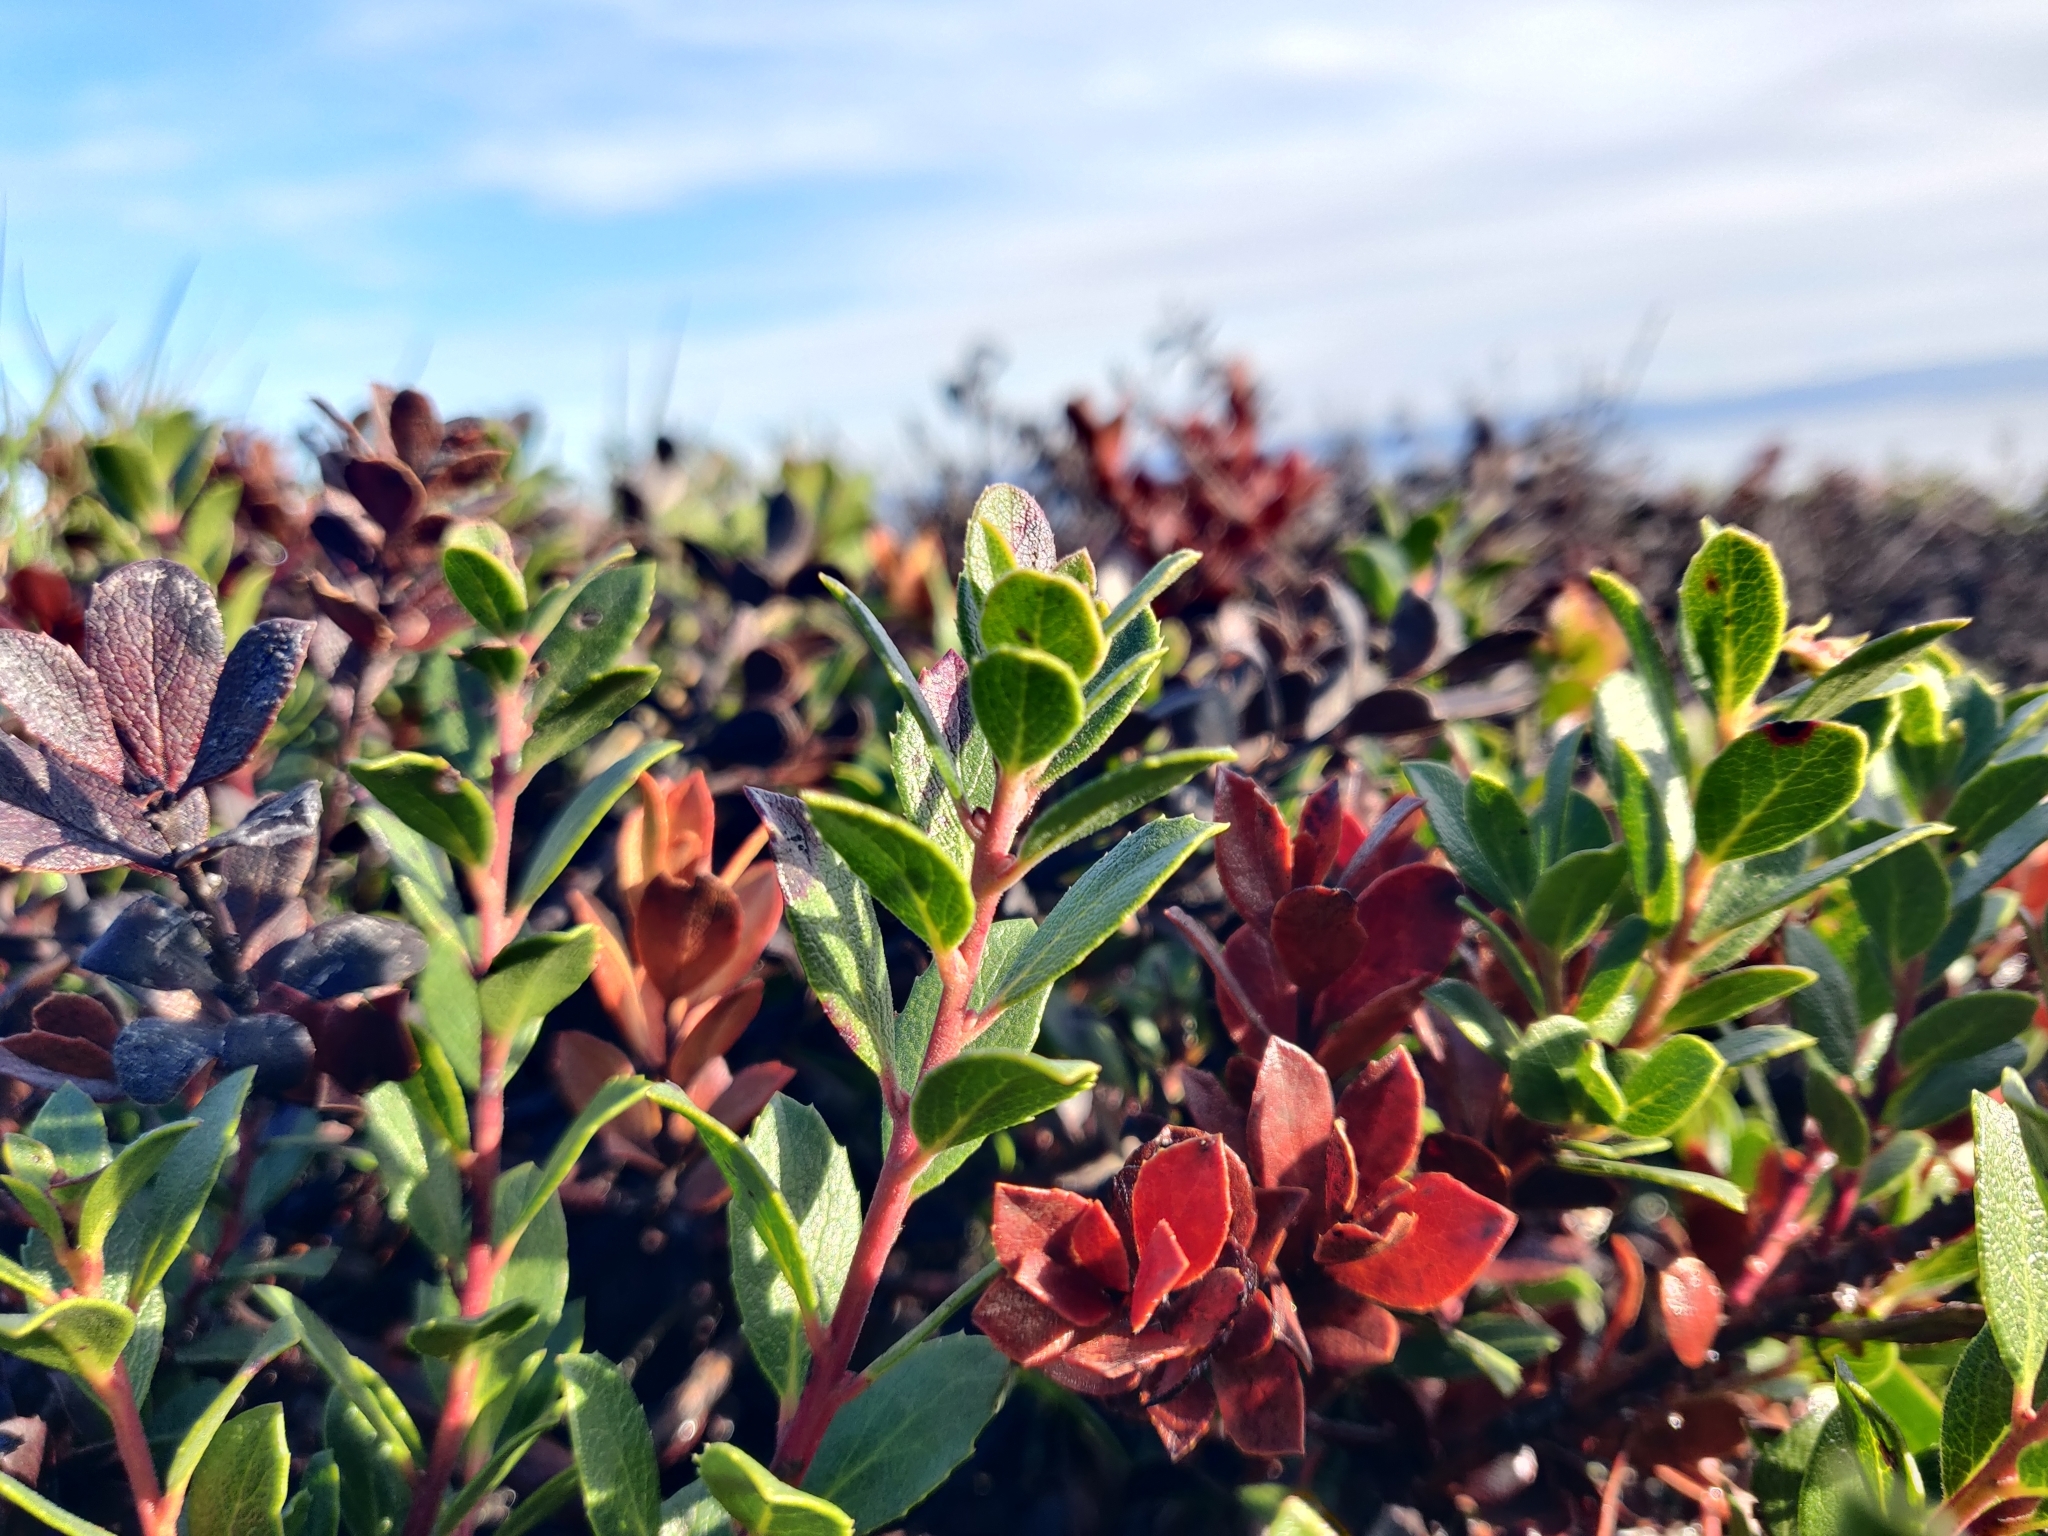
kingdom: Plantae
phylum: Tracheophyta
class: Magnoliopsida
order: Ericales
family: Ericaceae
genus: Arctostaphylos
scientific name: Arctostaphylos pacifica
